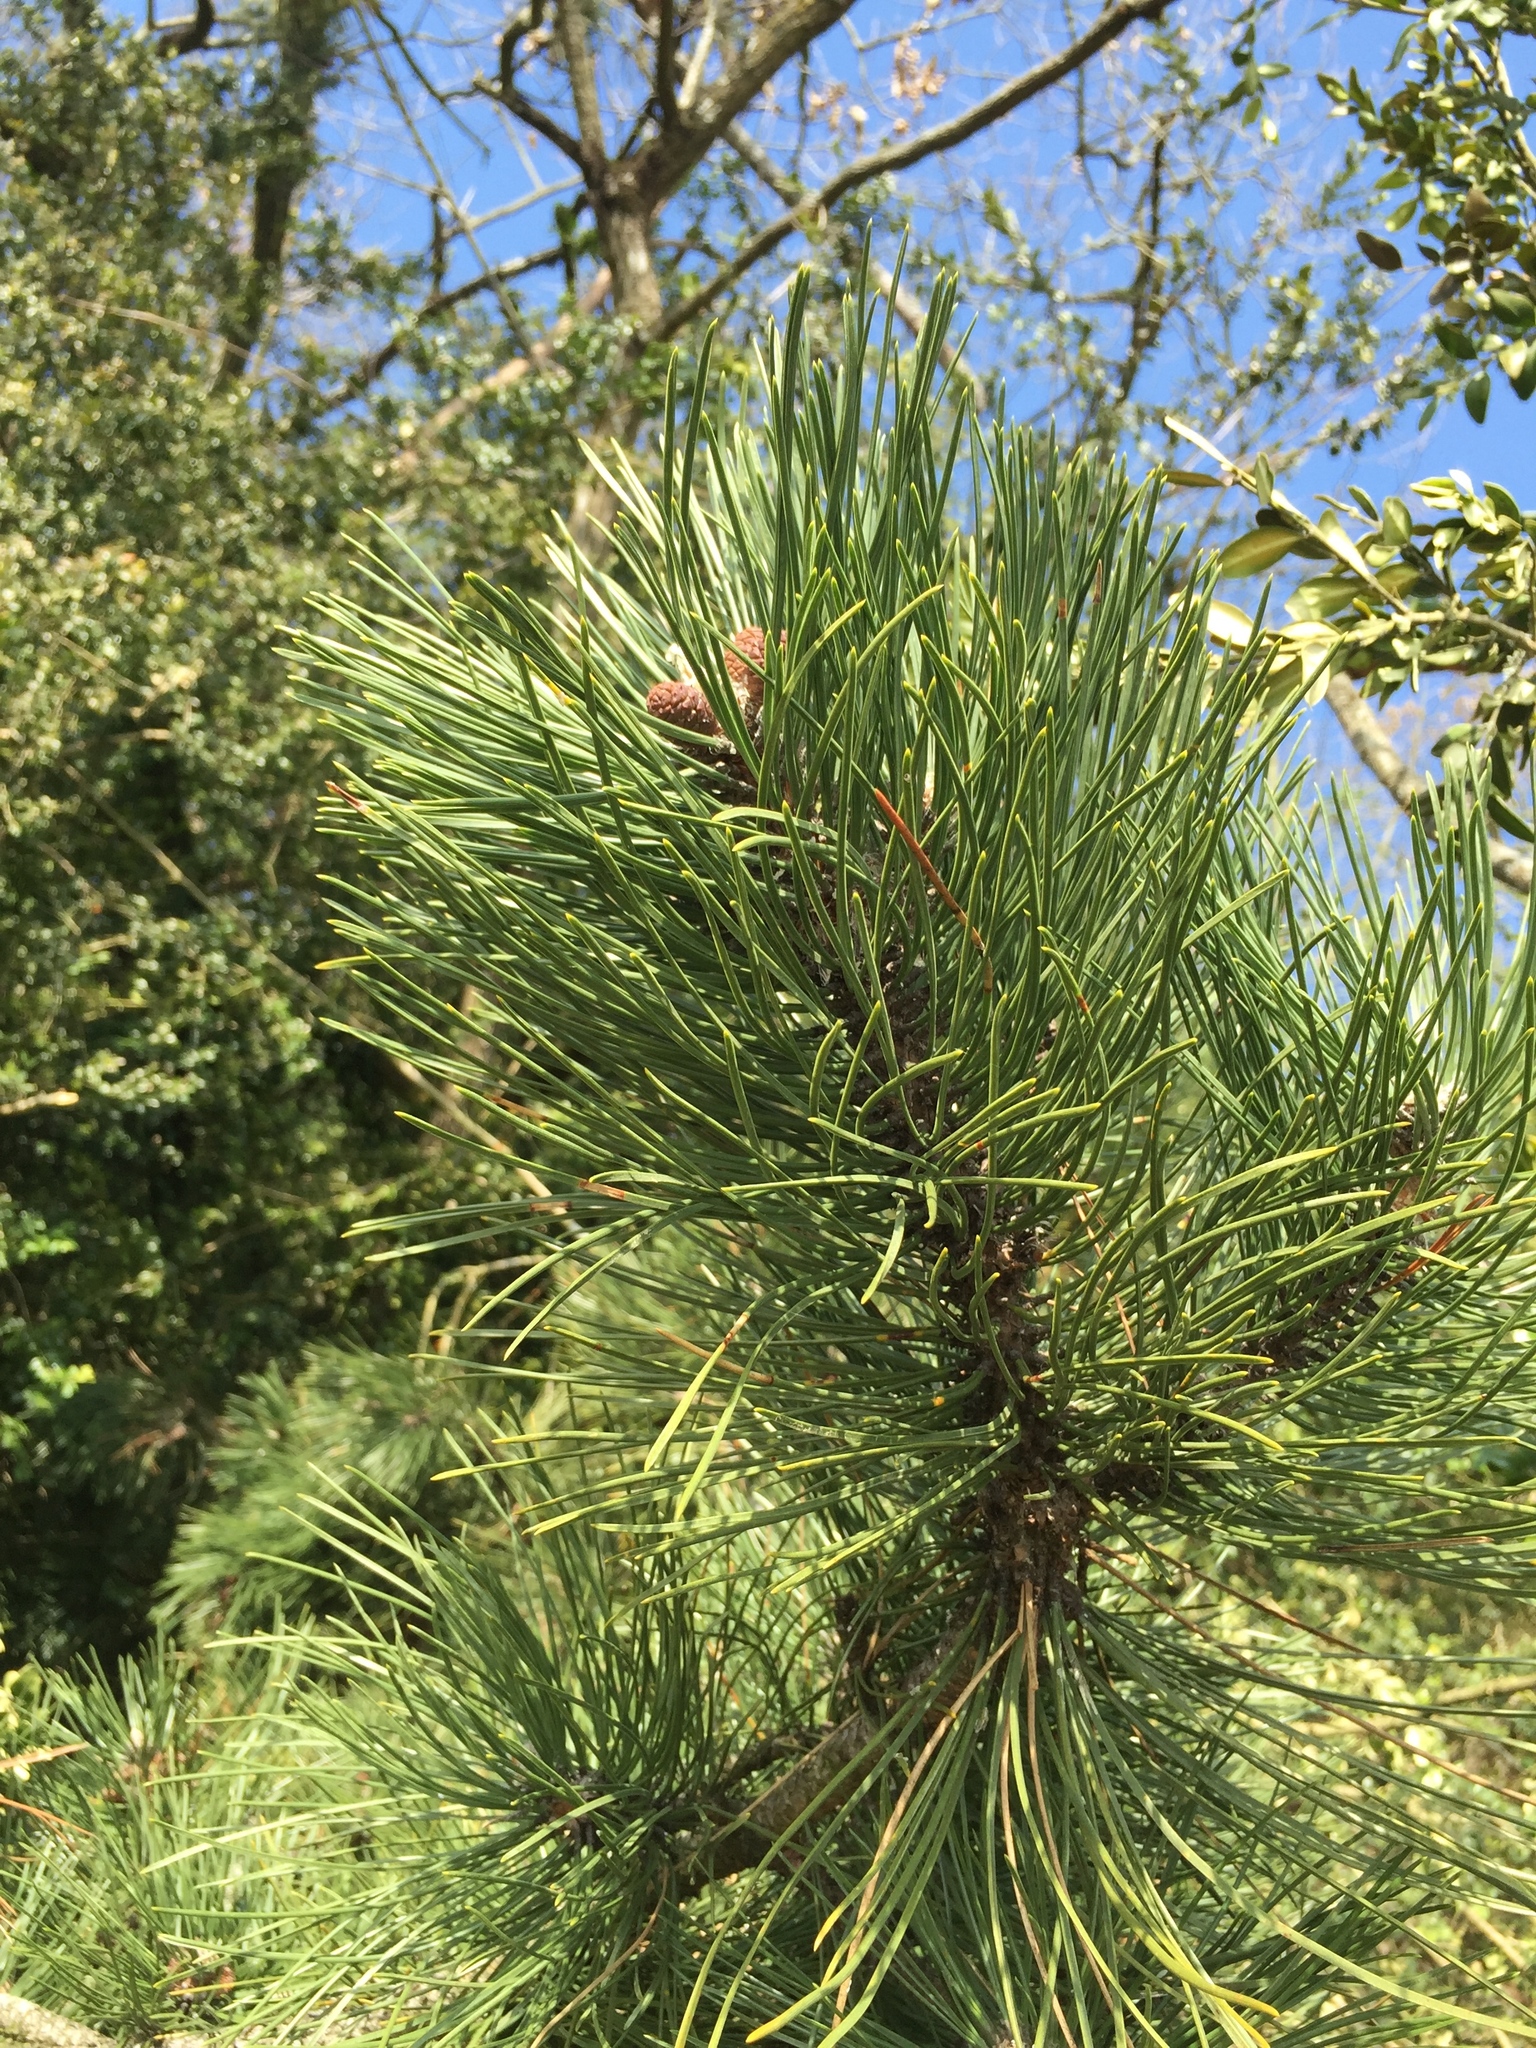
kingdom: Plantae
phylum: Tracheophyta
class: Pinopsida
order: Pinales
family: Pinaceae
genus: Pinus
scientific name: Pinus nigra
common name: Austrian pine
